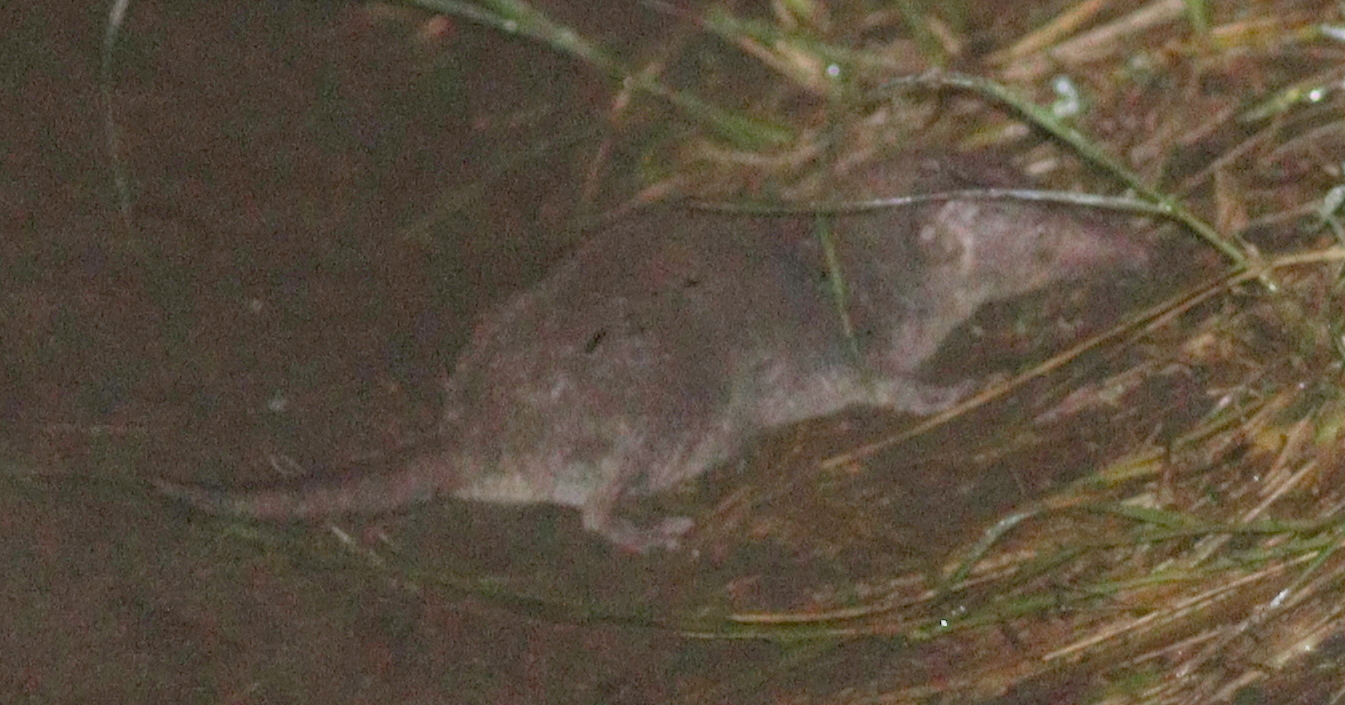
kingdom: Animalia
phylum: Chordata
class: Mammalia
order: Soricomorpha
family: Soricidae
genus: Suncus
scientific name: Suncus murinus
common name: Asian house shrew
